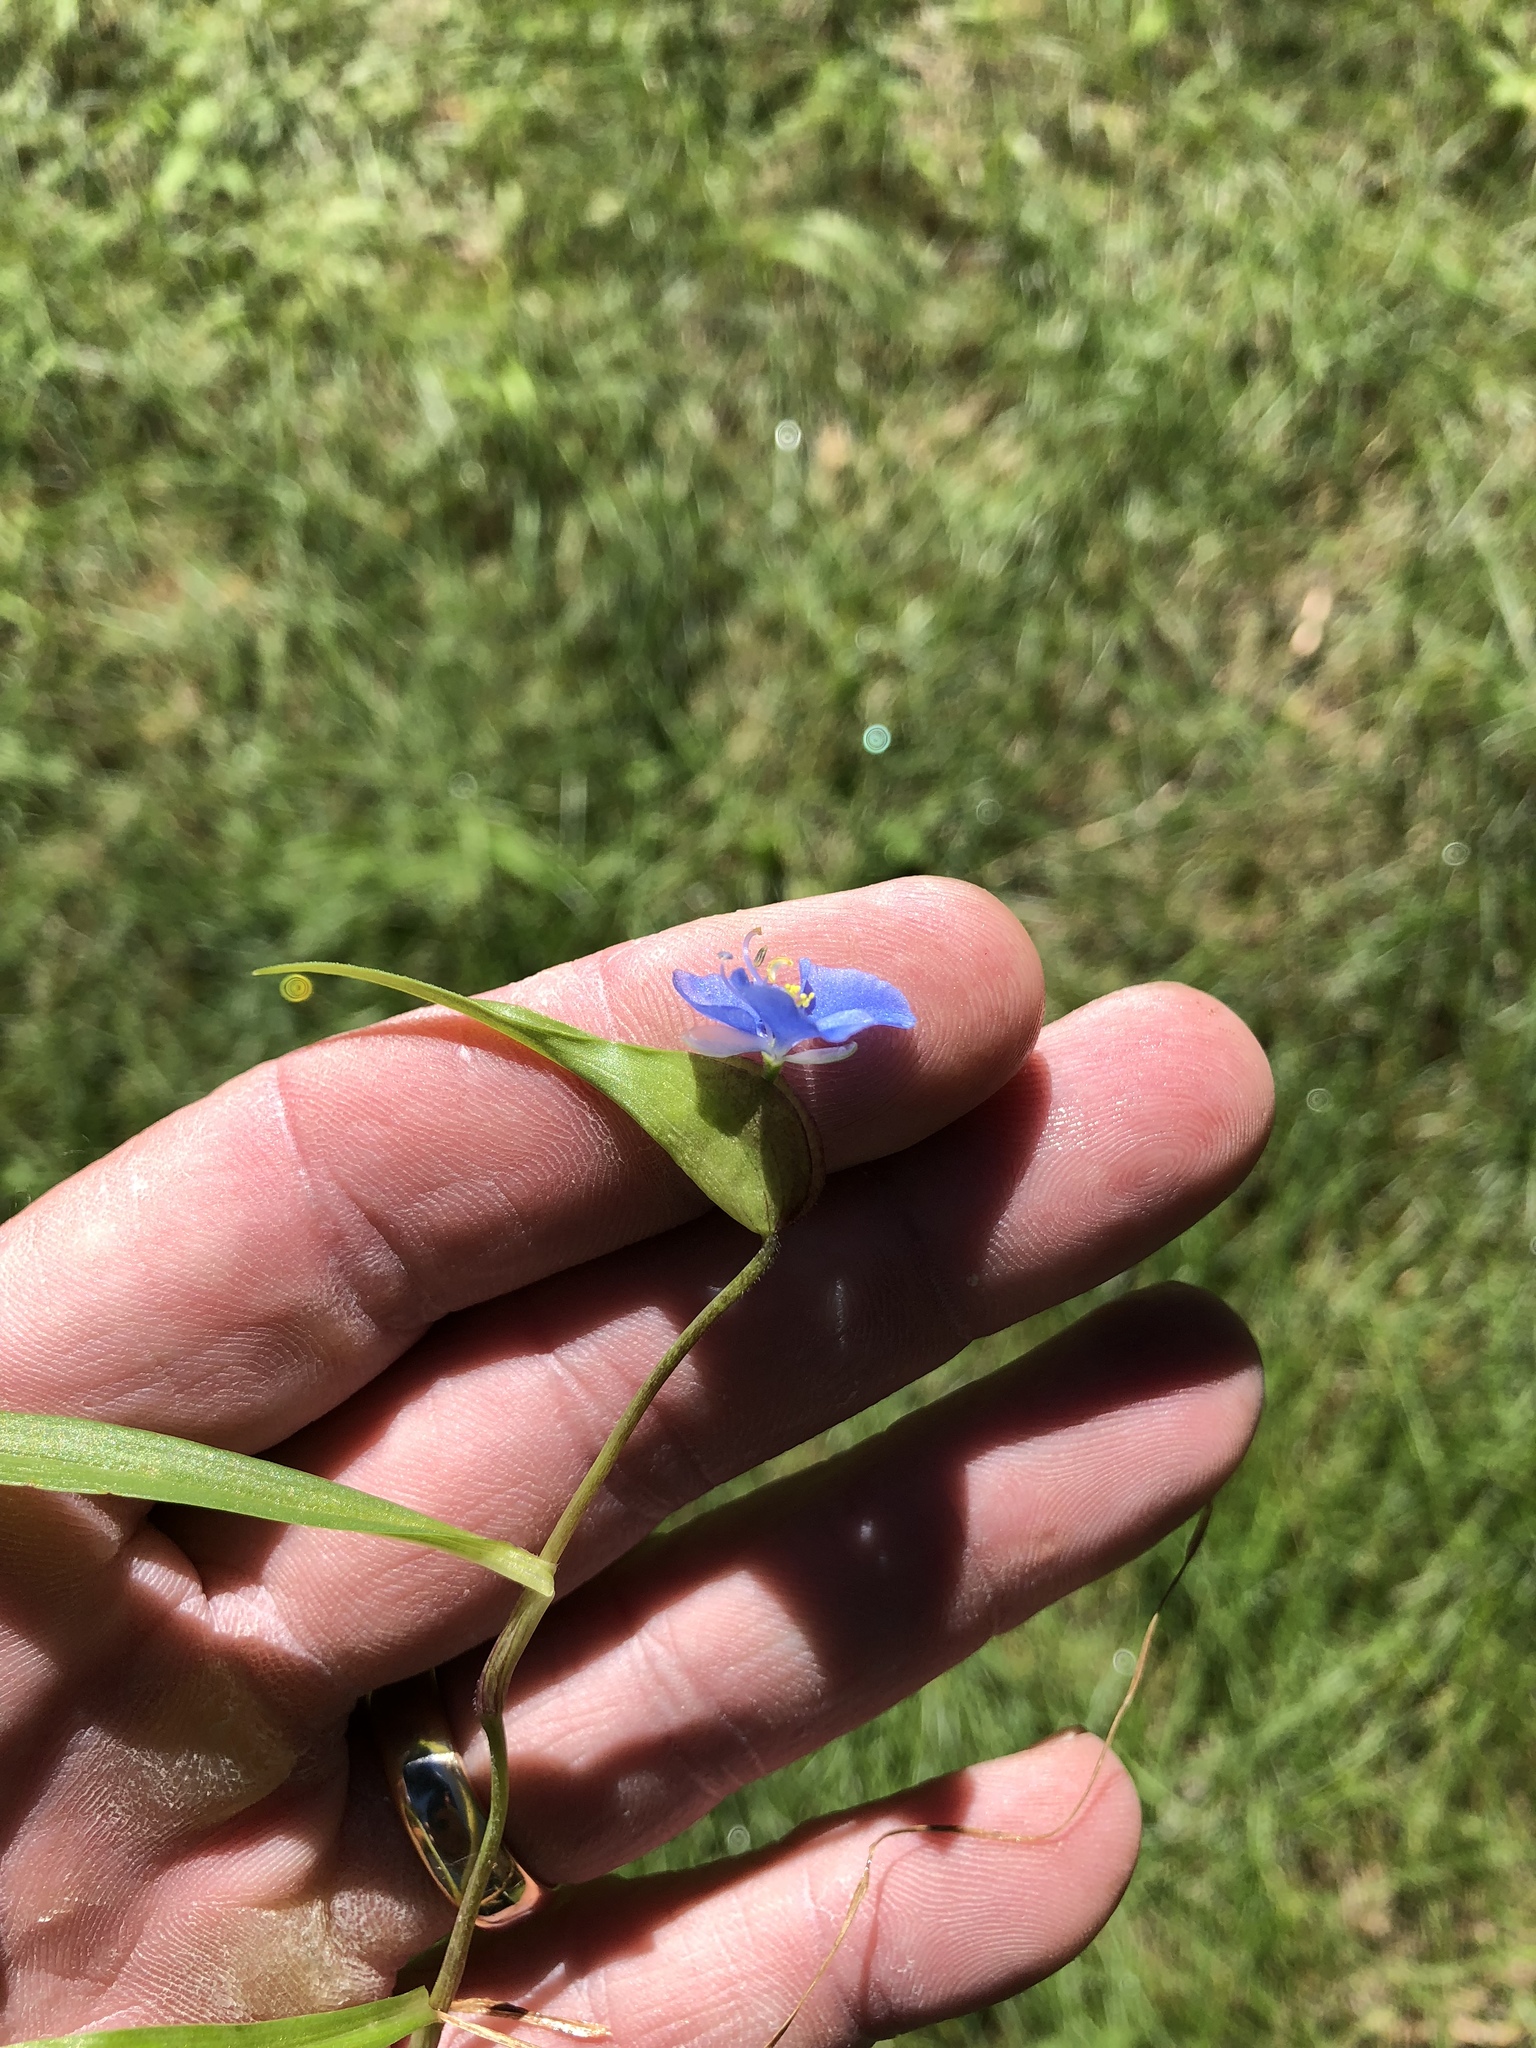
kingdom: Plantae
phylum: Tracheophyta
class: Liliopsida
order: Commelinales
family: Commelinaceae
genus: Commelina
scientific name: Commelina dianthifolia
